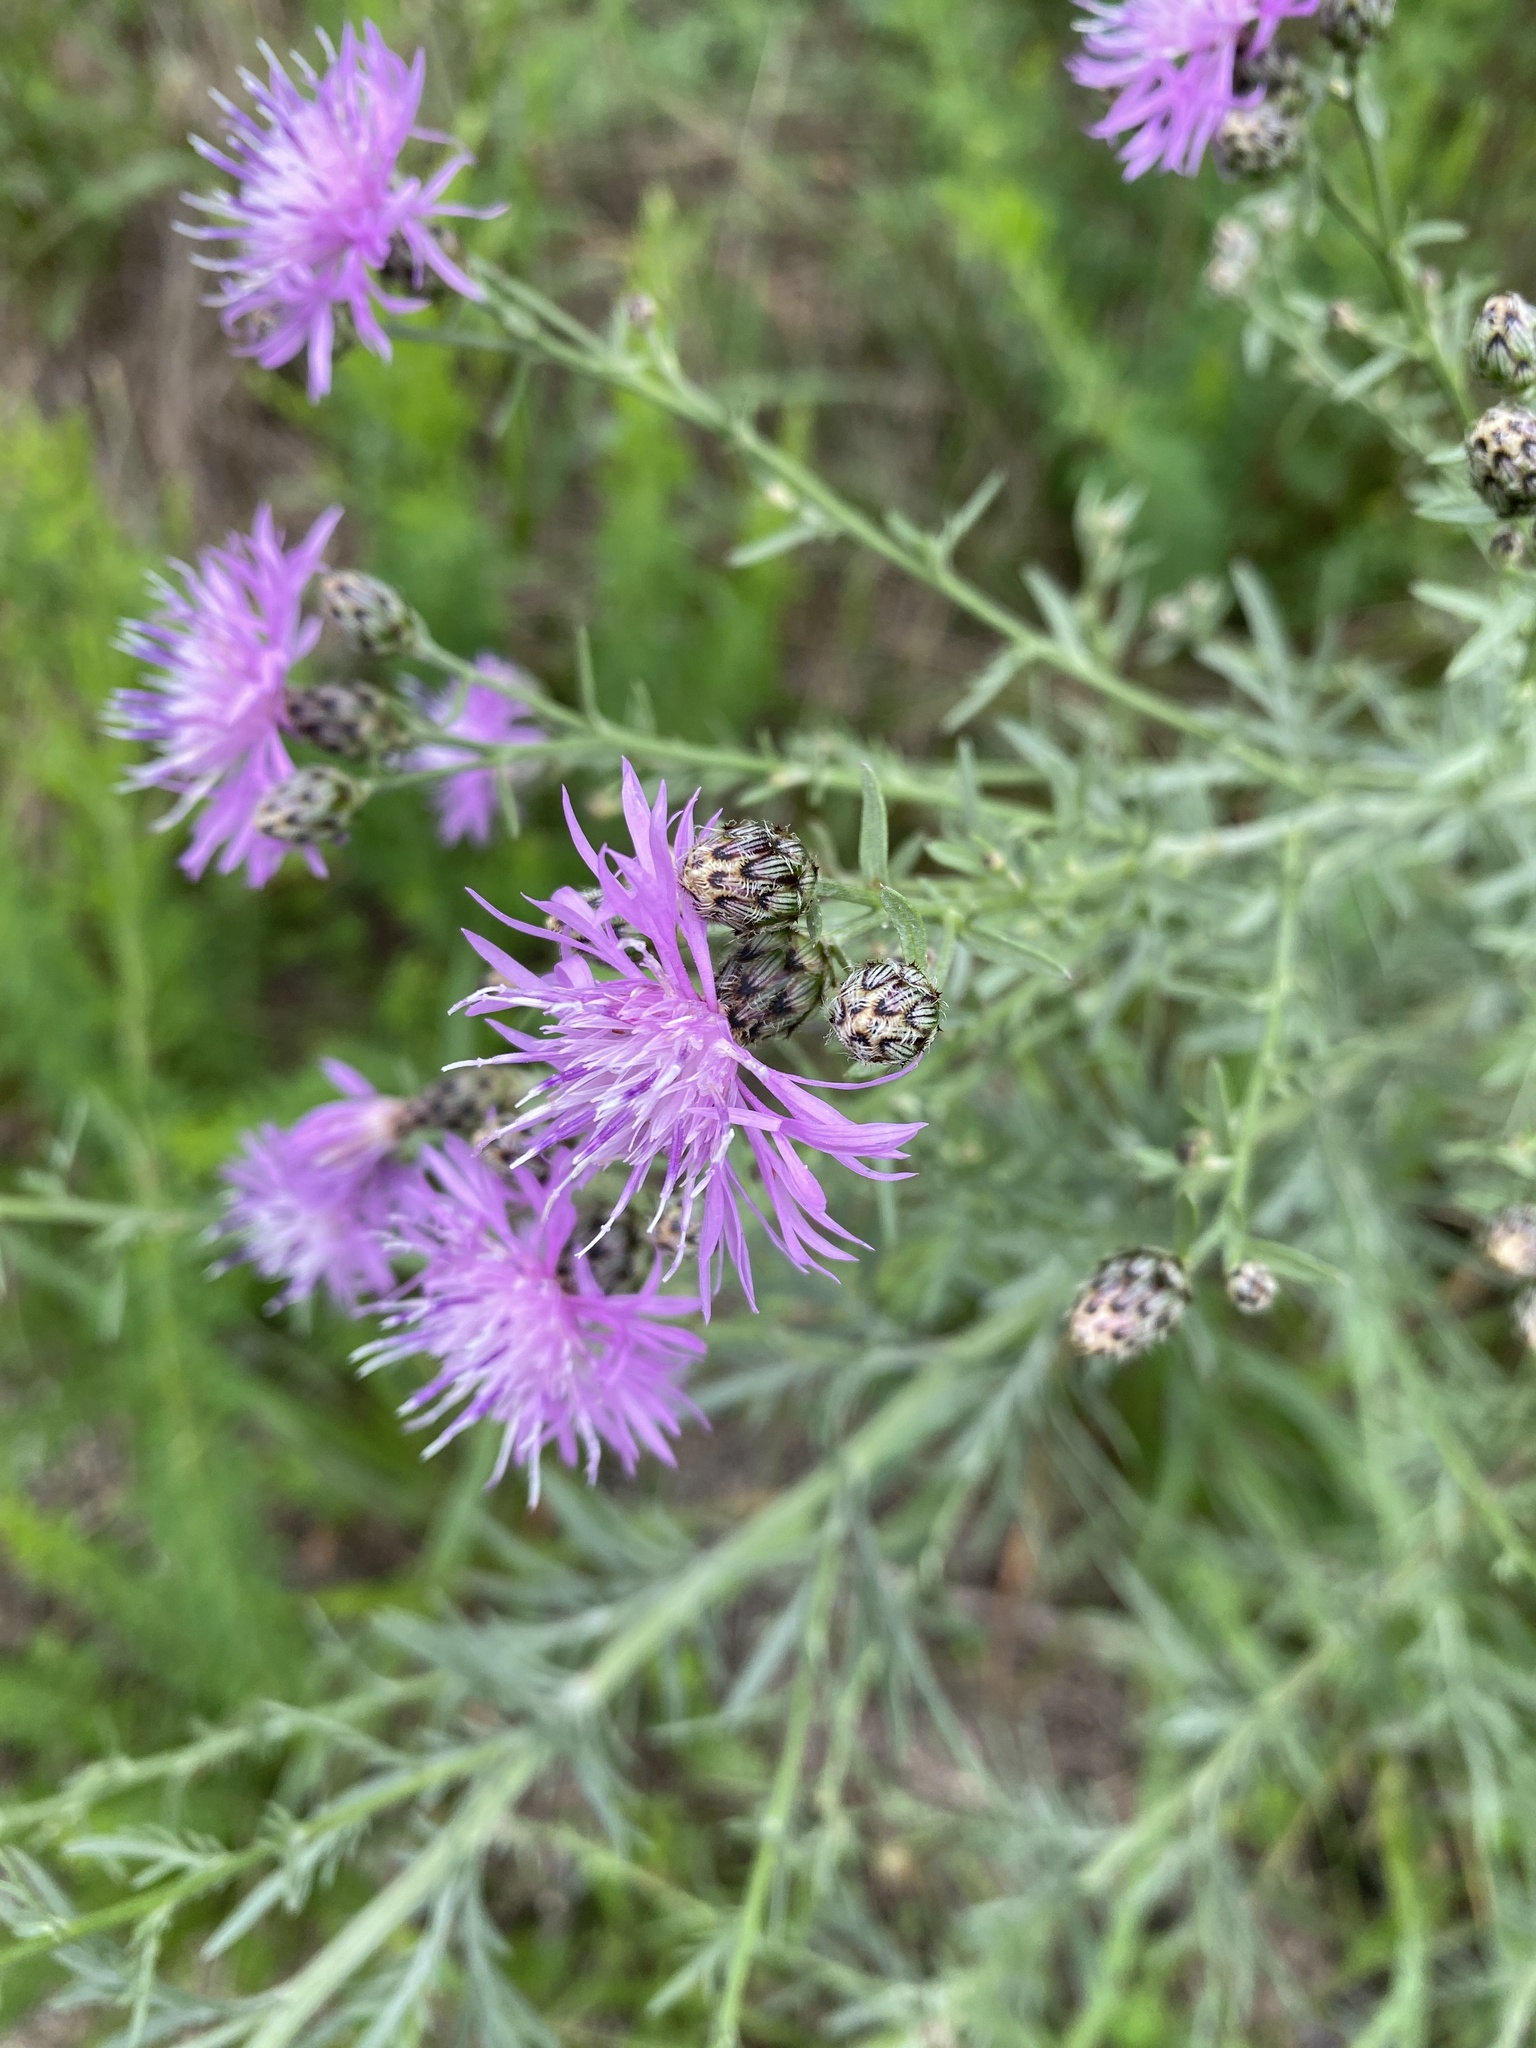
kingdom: Plantae
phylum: Tracheophyta
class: Magnoliopsida
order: Asterales
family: Asteraceae
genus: Centaurea
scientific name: Centaurea stoebe
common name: Spotted knapweed
